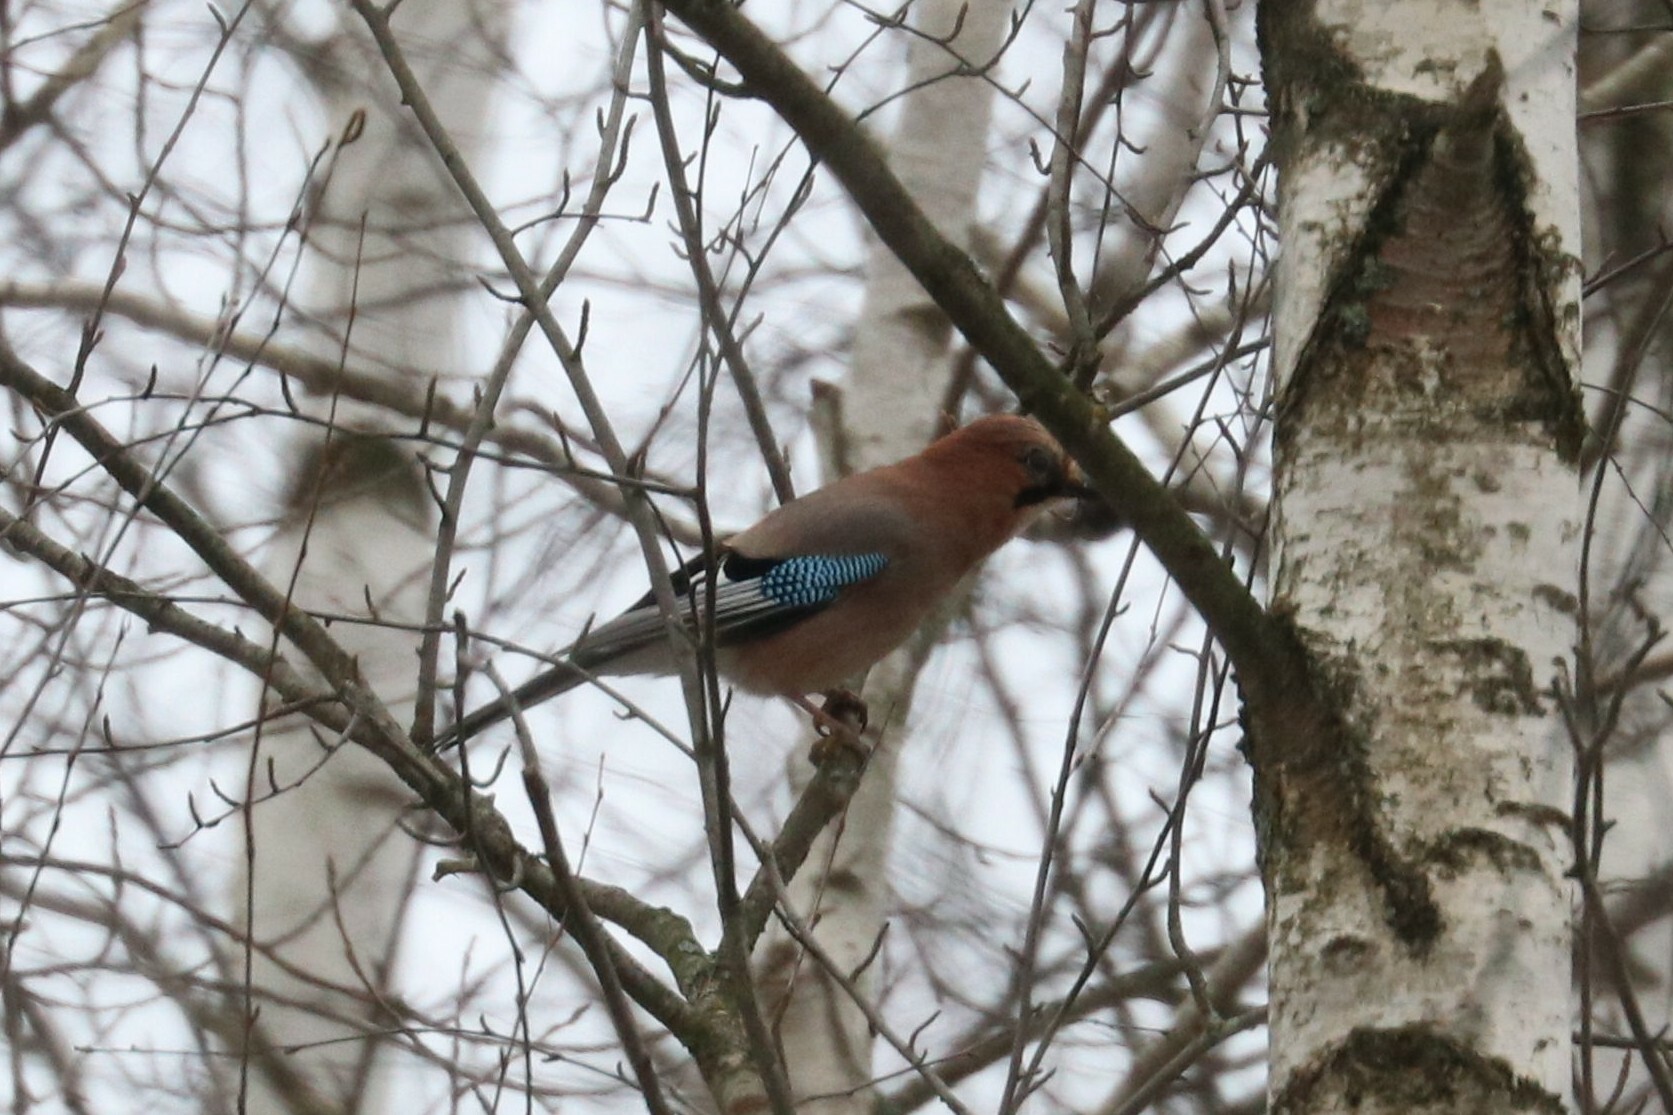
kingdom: Animalia
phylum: Chordata
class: Aves
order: Passeriformes
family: Corvidae
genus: Garrulus
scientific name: Garrulus glandarius
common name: Eurasian jay
